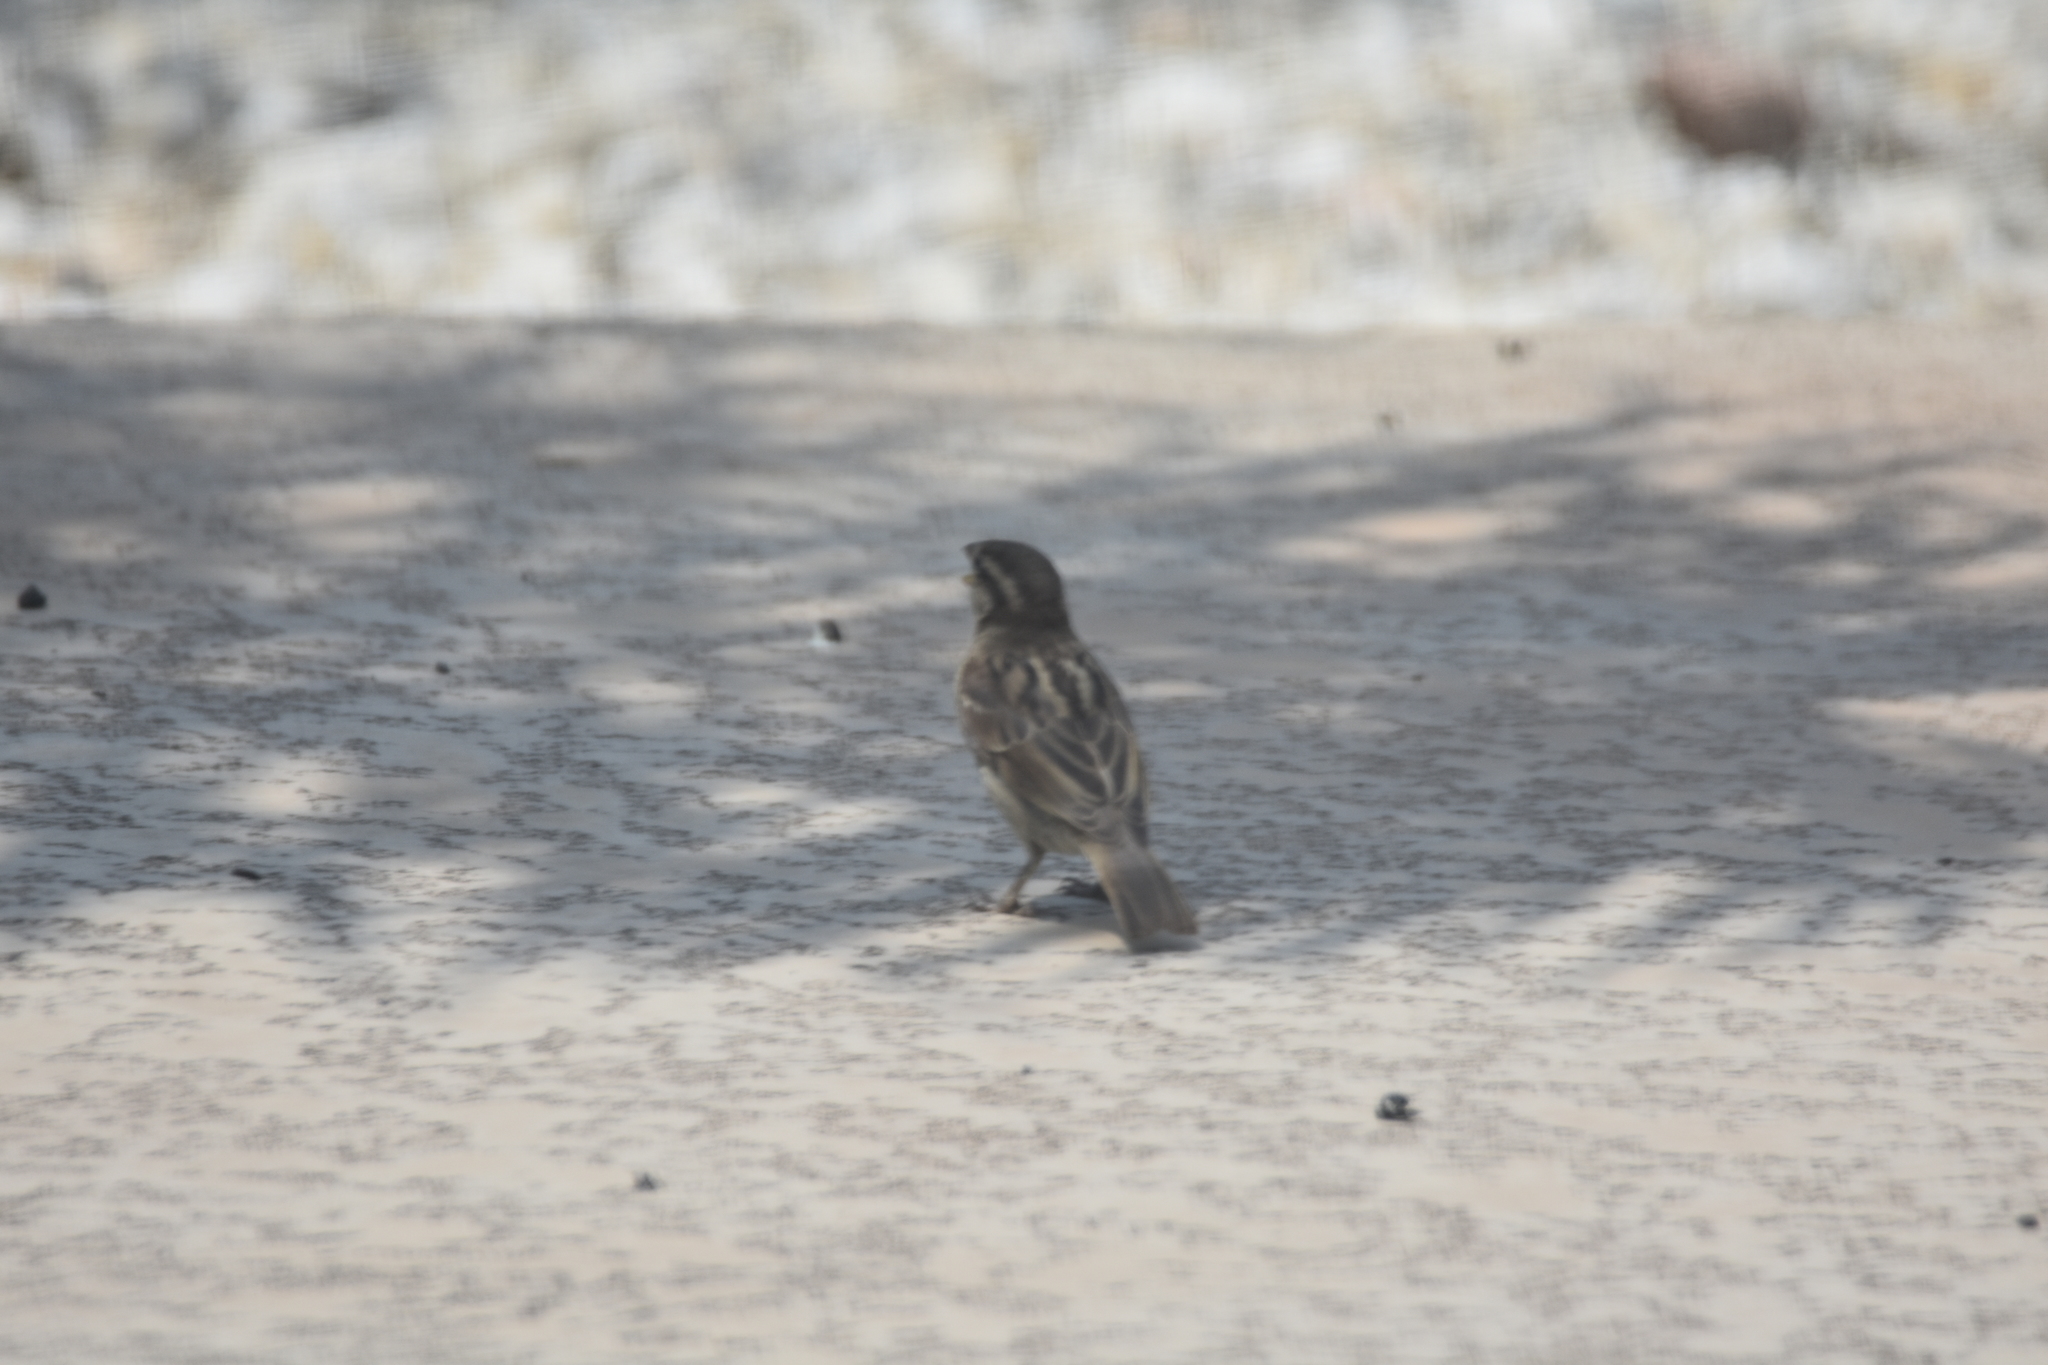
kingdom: Animalia
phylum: Chordata
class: Aves
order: Passeriformes
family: Passeridae
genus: Passer
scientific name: Passer domesticus
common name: House sparrow
